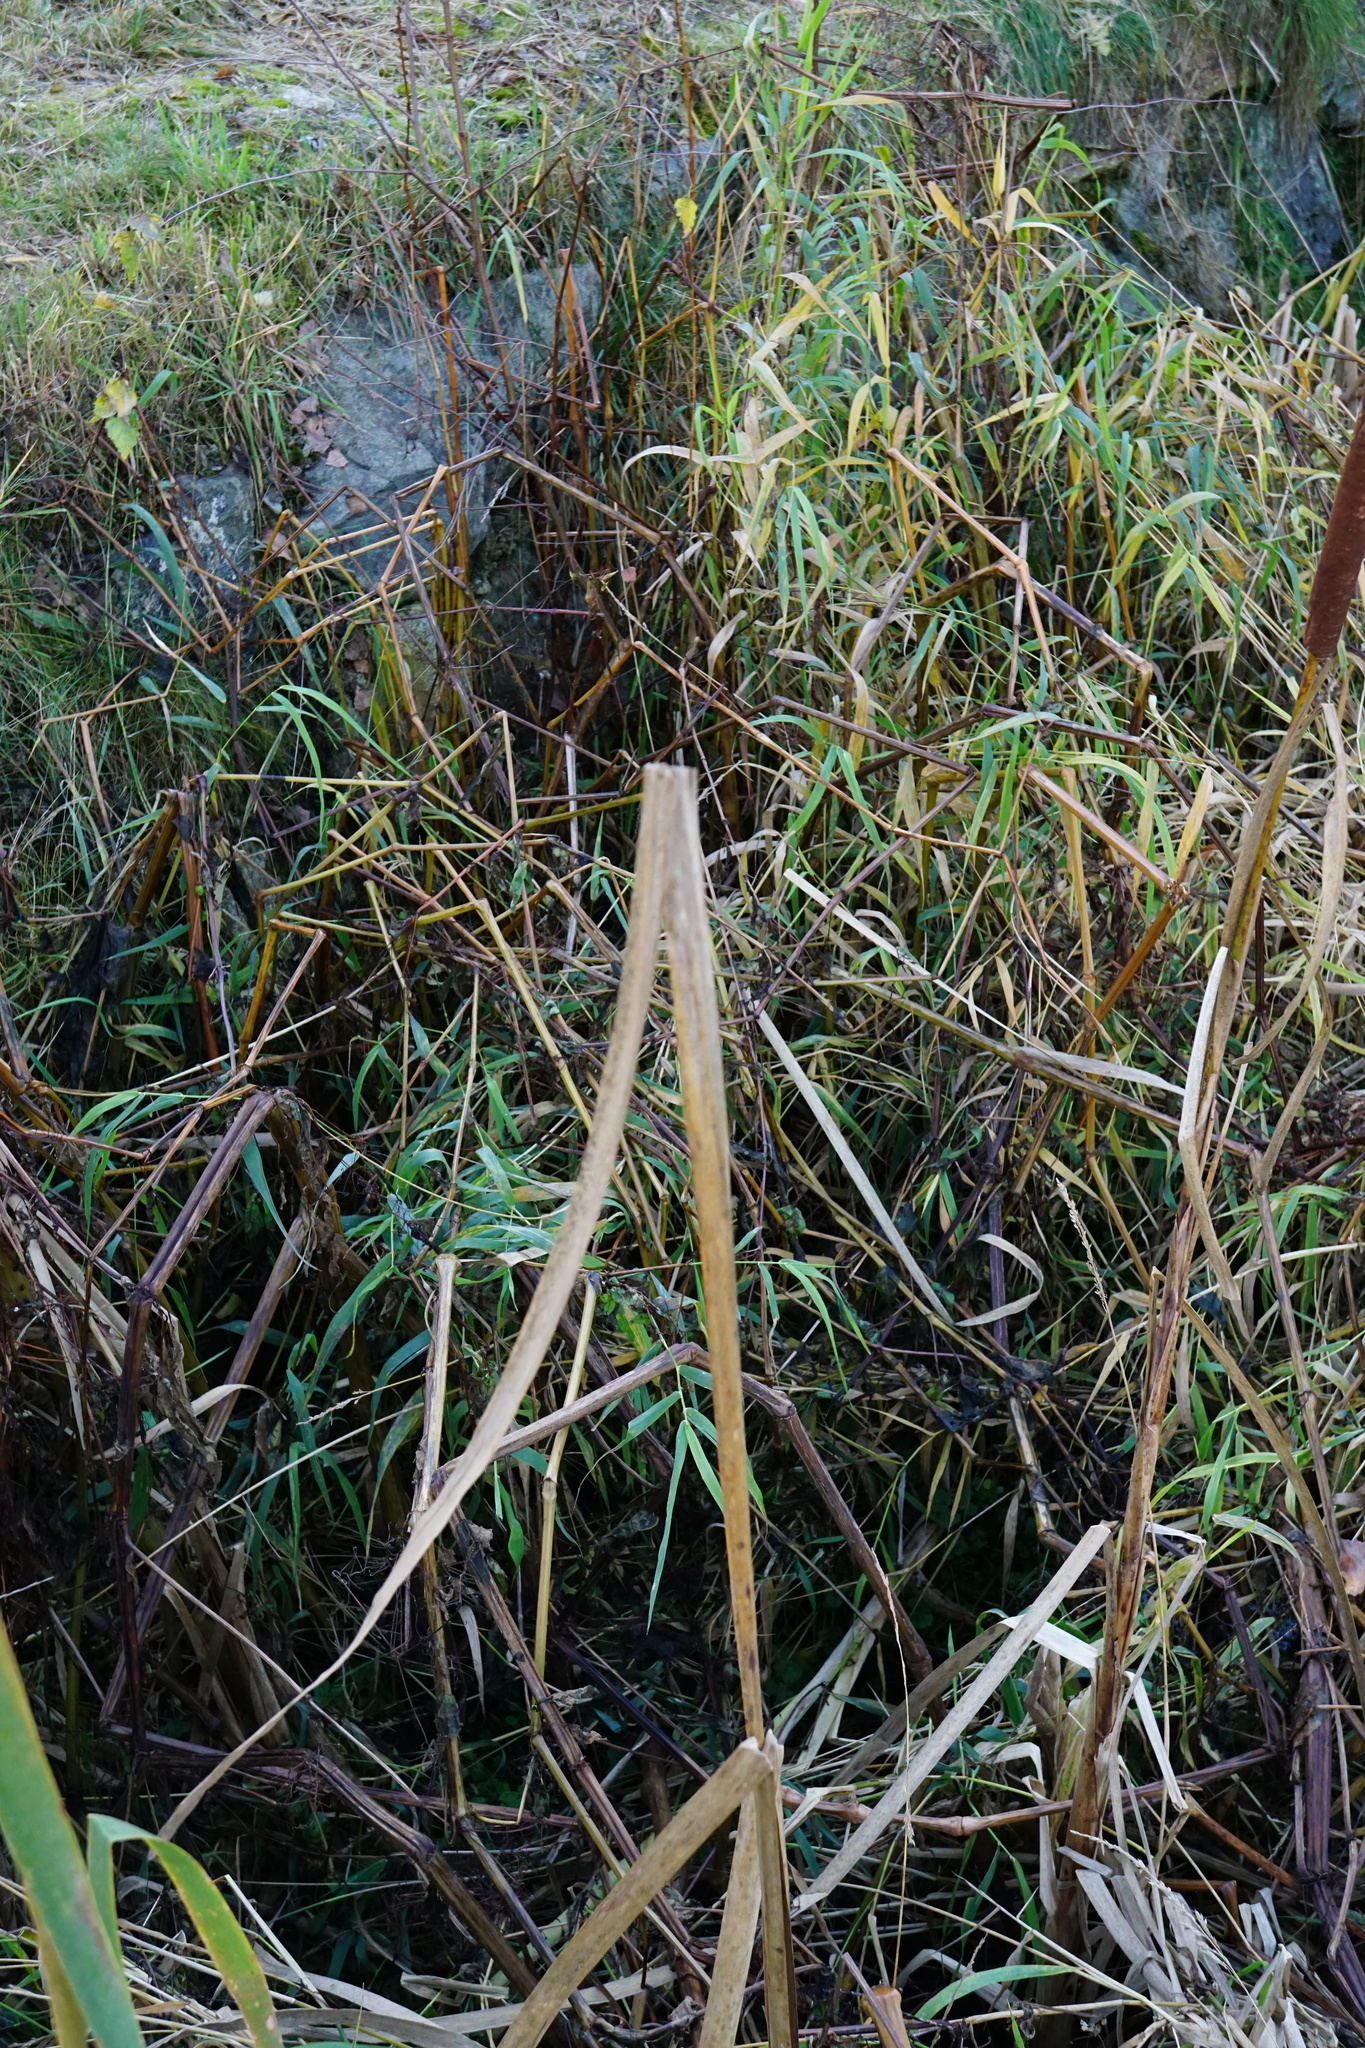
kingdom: Plantae
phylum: Tracheophyta
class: Liliopsida
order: Poales
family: Typhaceae
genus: Typha
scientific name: Typha latifolia
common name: Broadleaf cattail
